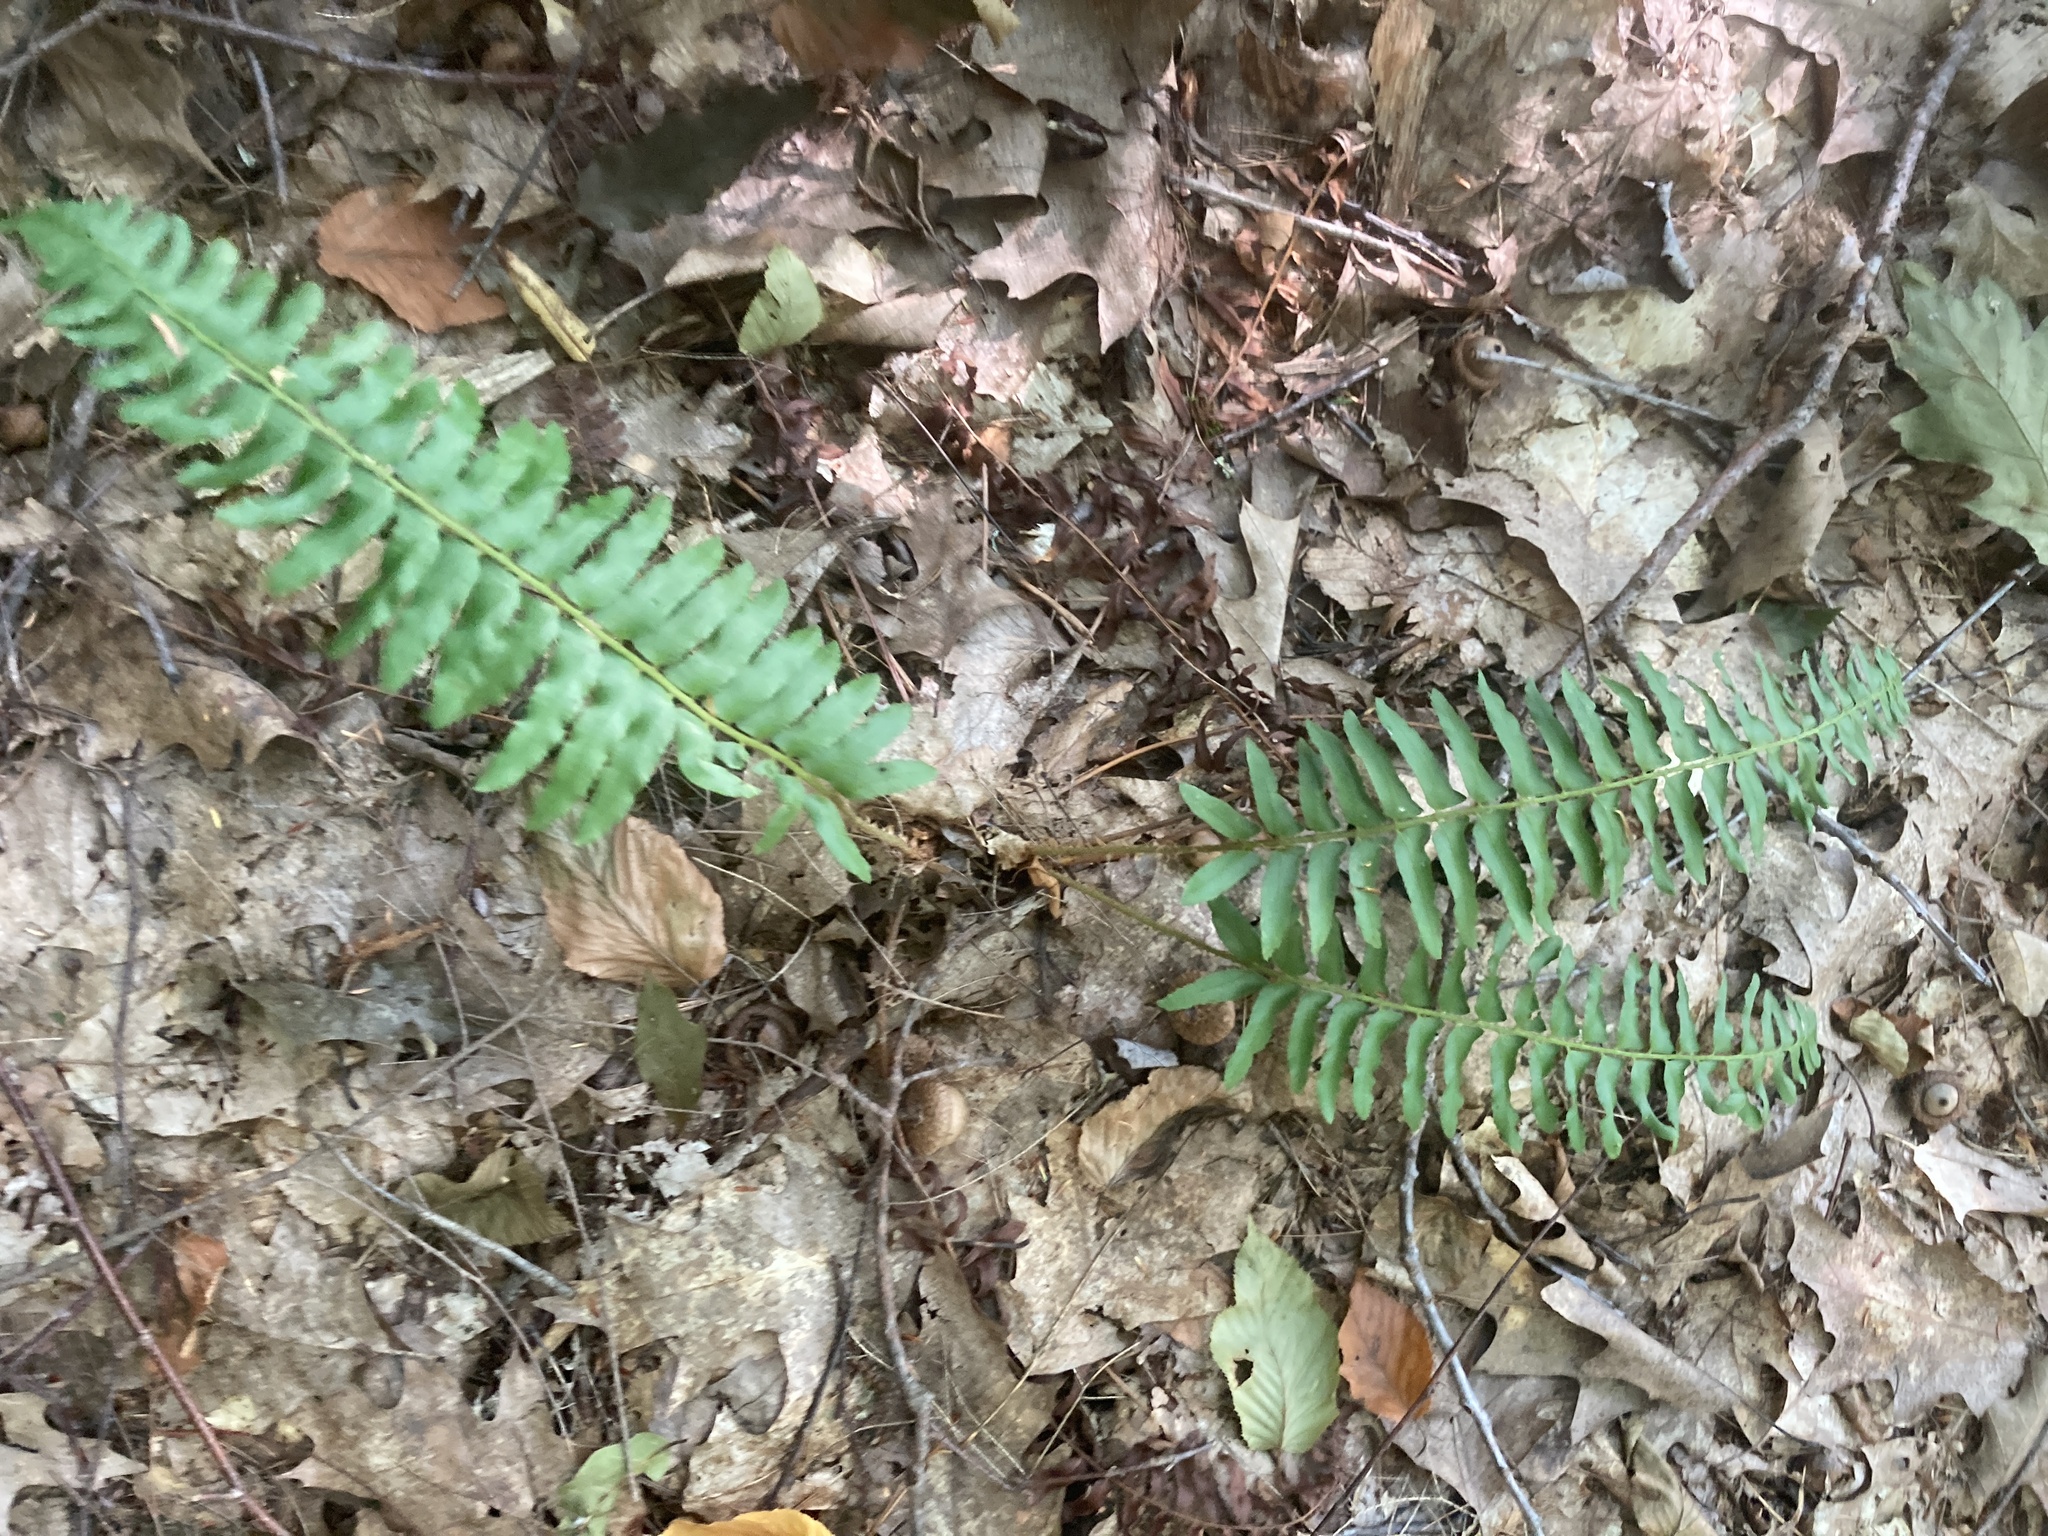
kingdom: Plantae
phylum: Tracheophyta
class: Polypodiopsida
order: Polypodiales
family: Dryopteridaceae
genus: Polystichum
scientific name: Polystichum acrostichoides
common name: Christmas fern
